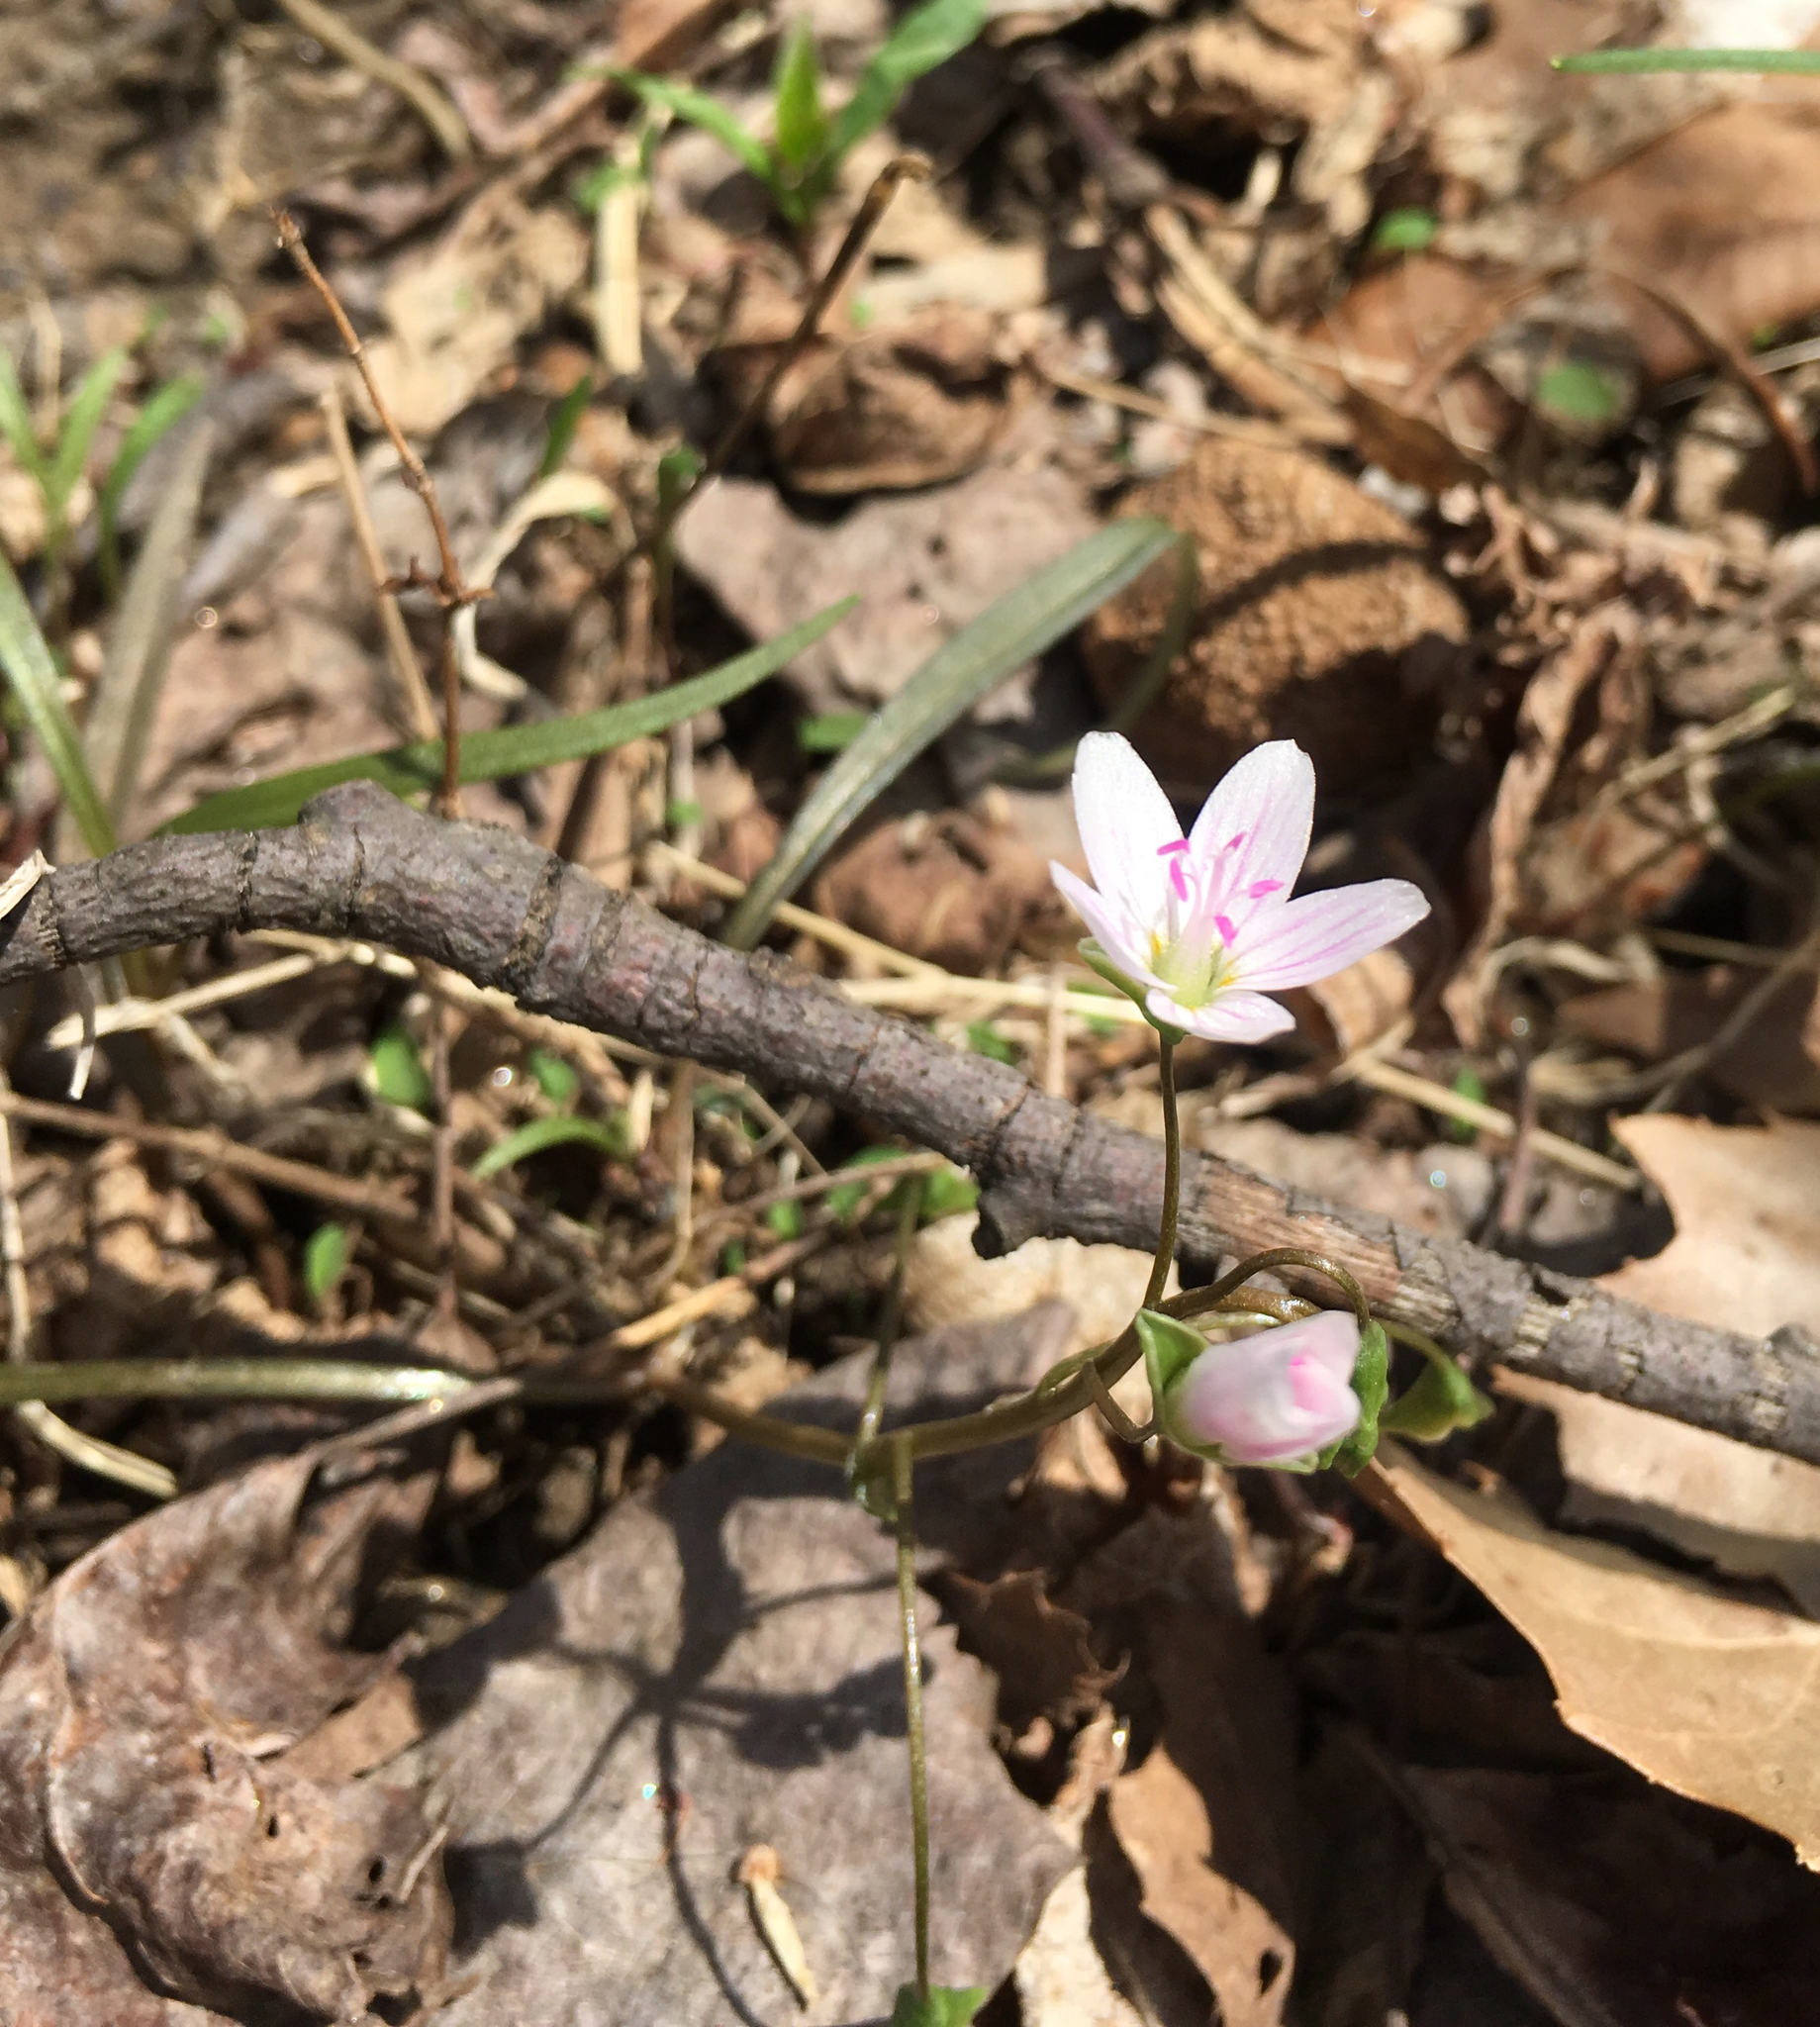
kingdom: Plantae
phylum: Tracheophyta
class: Magnoliopsida
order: Caryophyllales
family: Montiaceae
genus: Claytonia
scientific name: Claytonia virginica
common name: Virginia springbeauty
